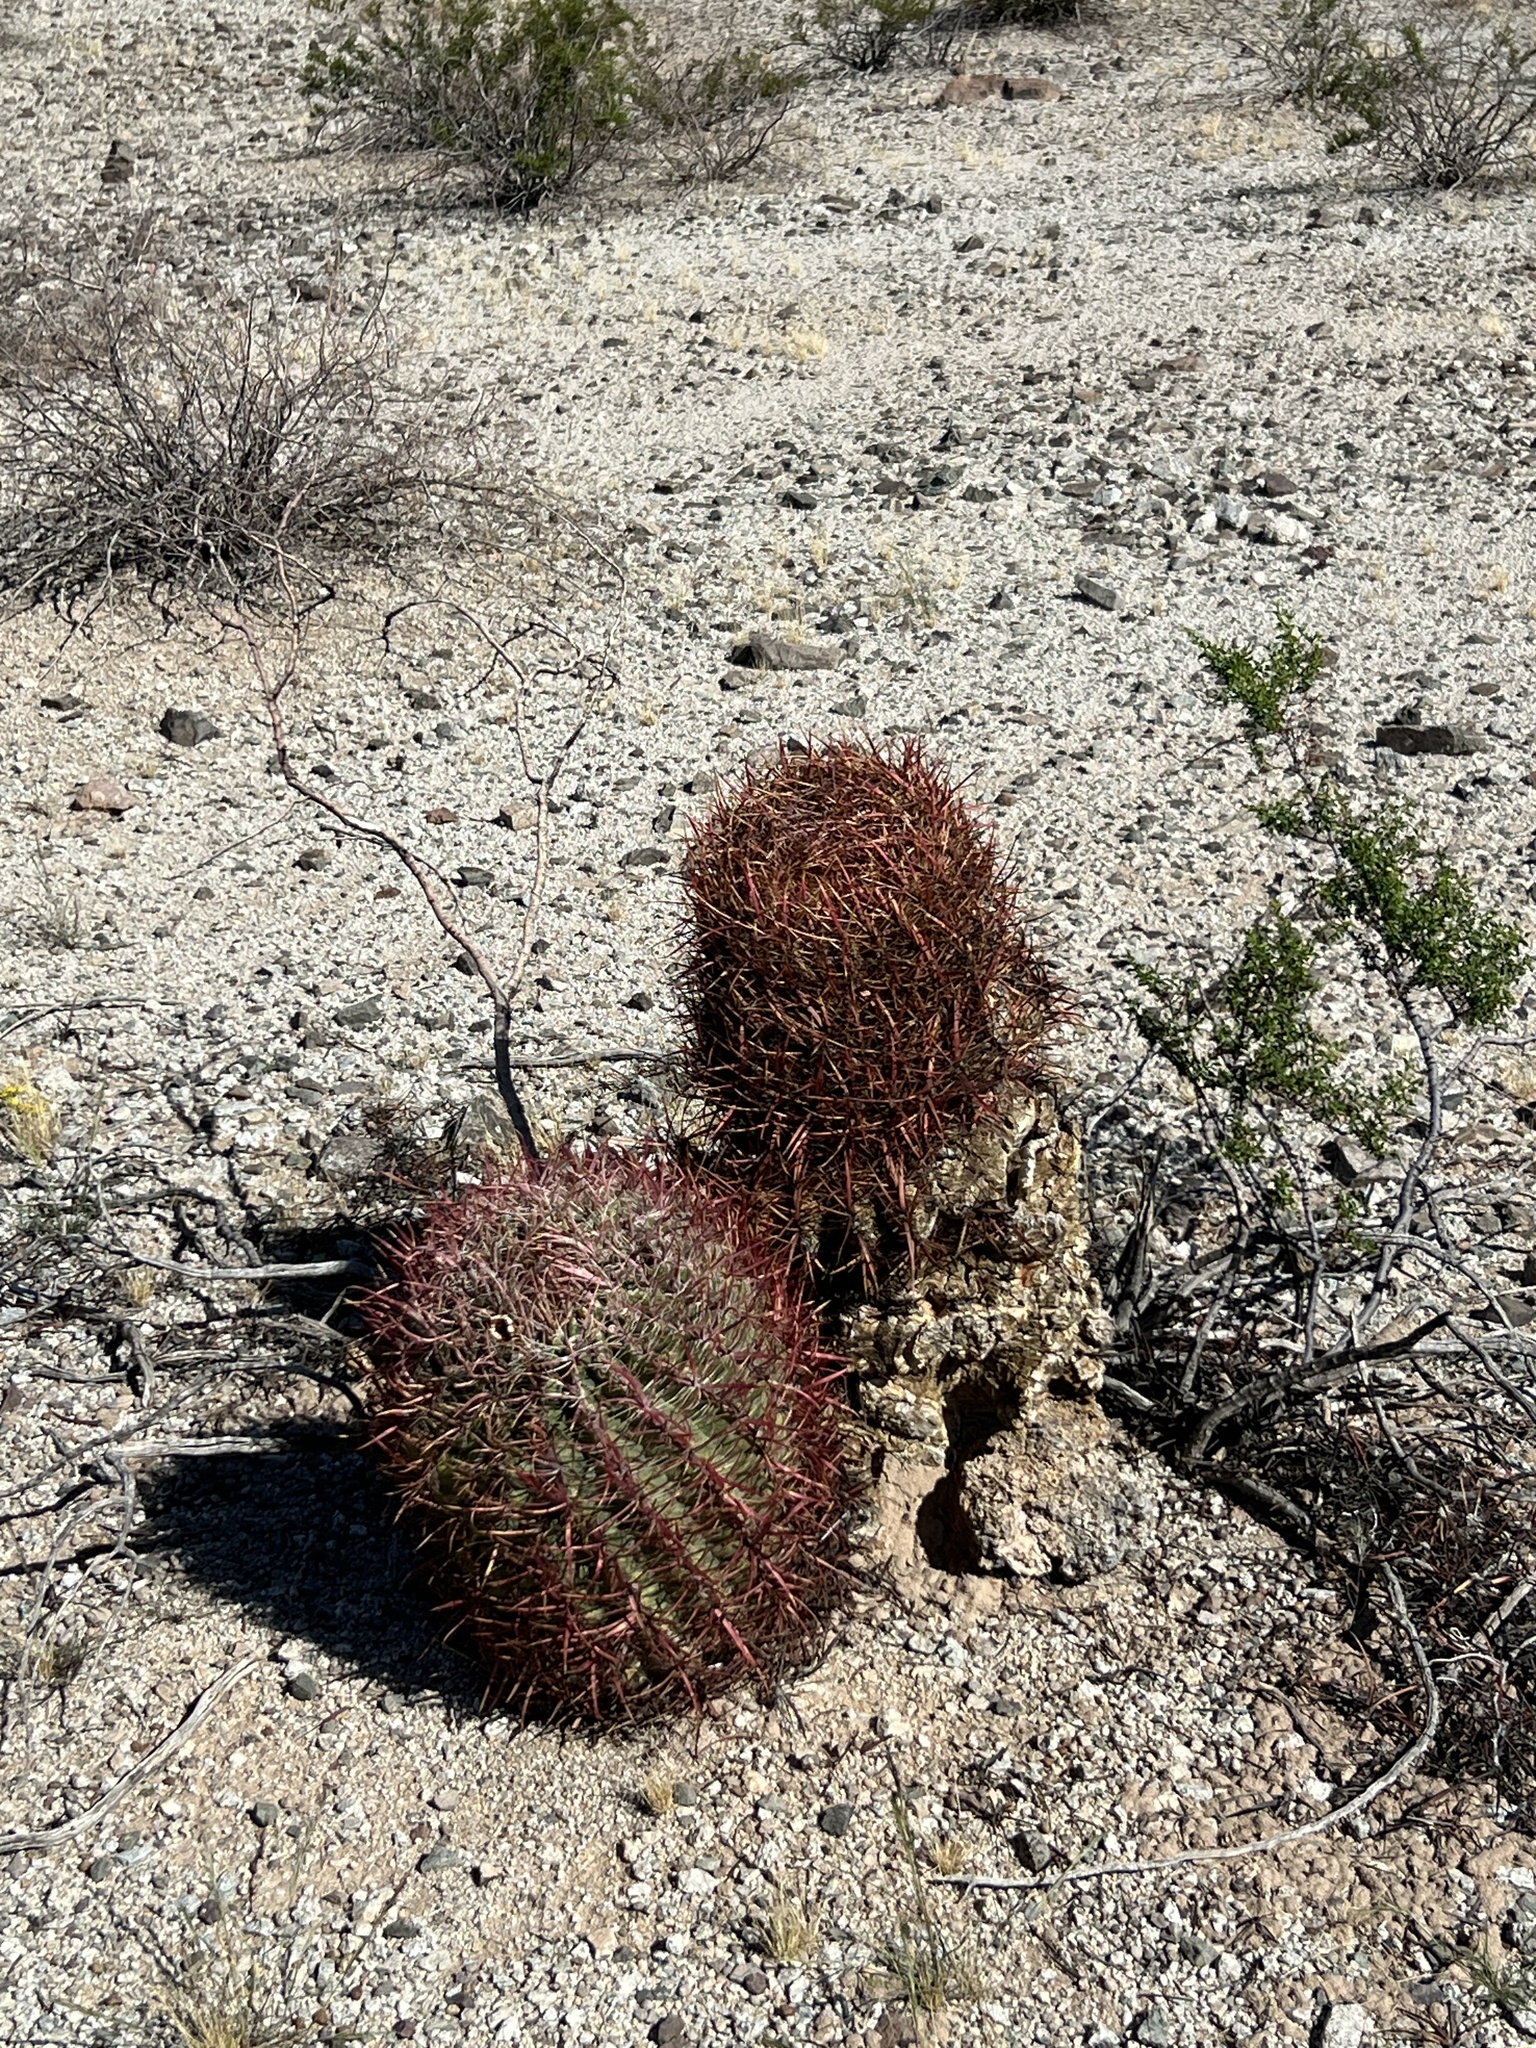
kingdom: Plantae
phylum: Tracheophyta
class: Magnoliopsida
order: Caryophyllales
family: Cactaceae
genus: Ferocactus
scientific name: Ferocactus cylindraceus
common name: California barrel cactus
